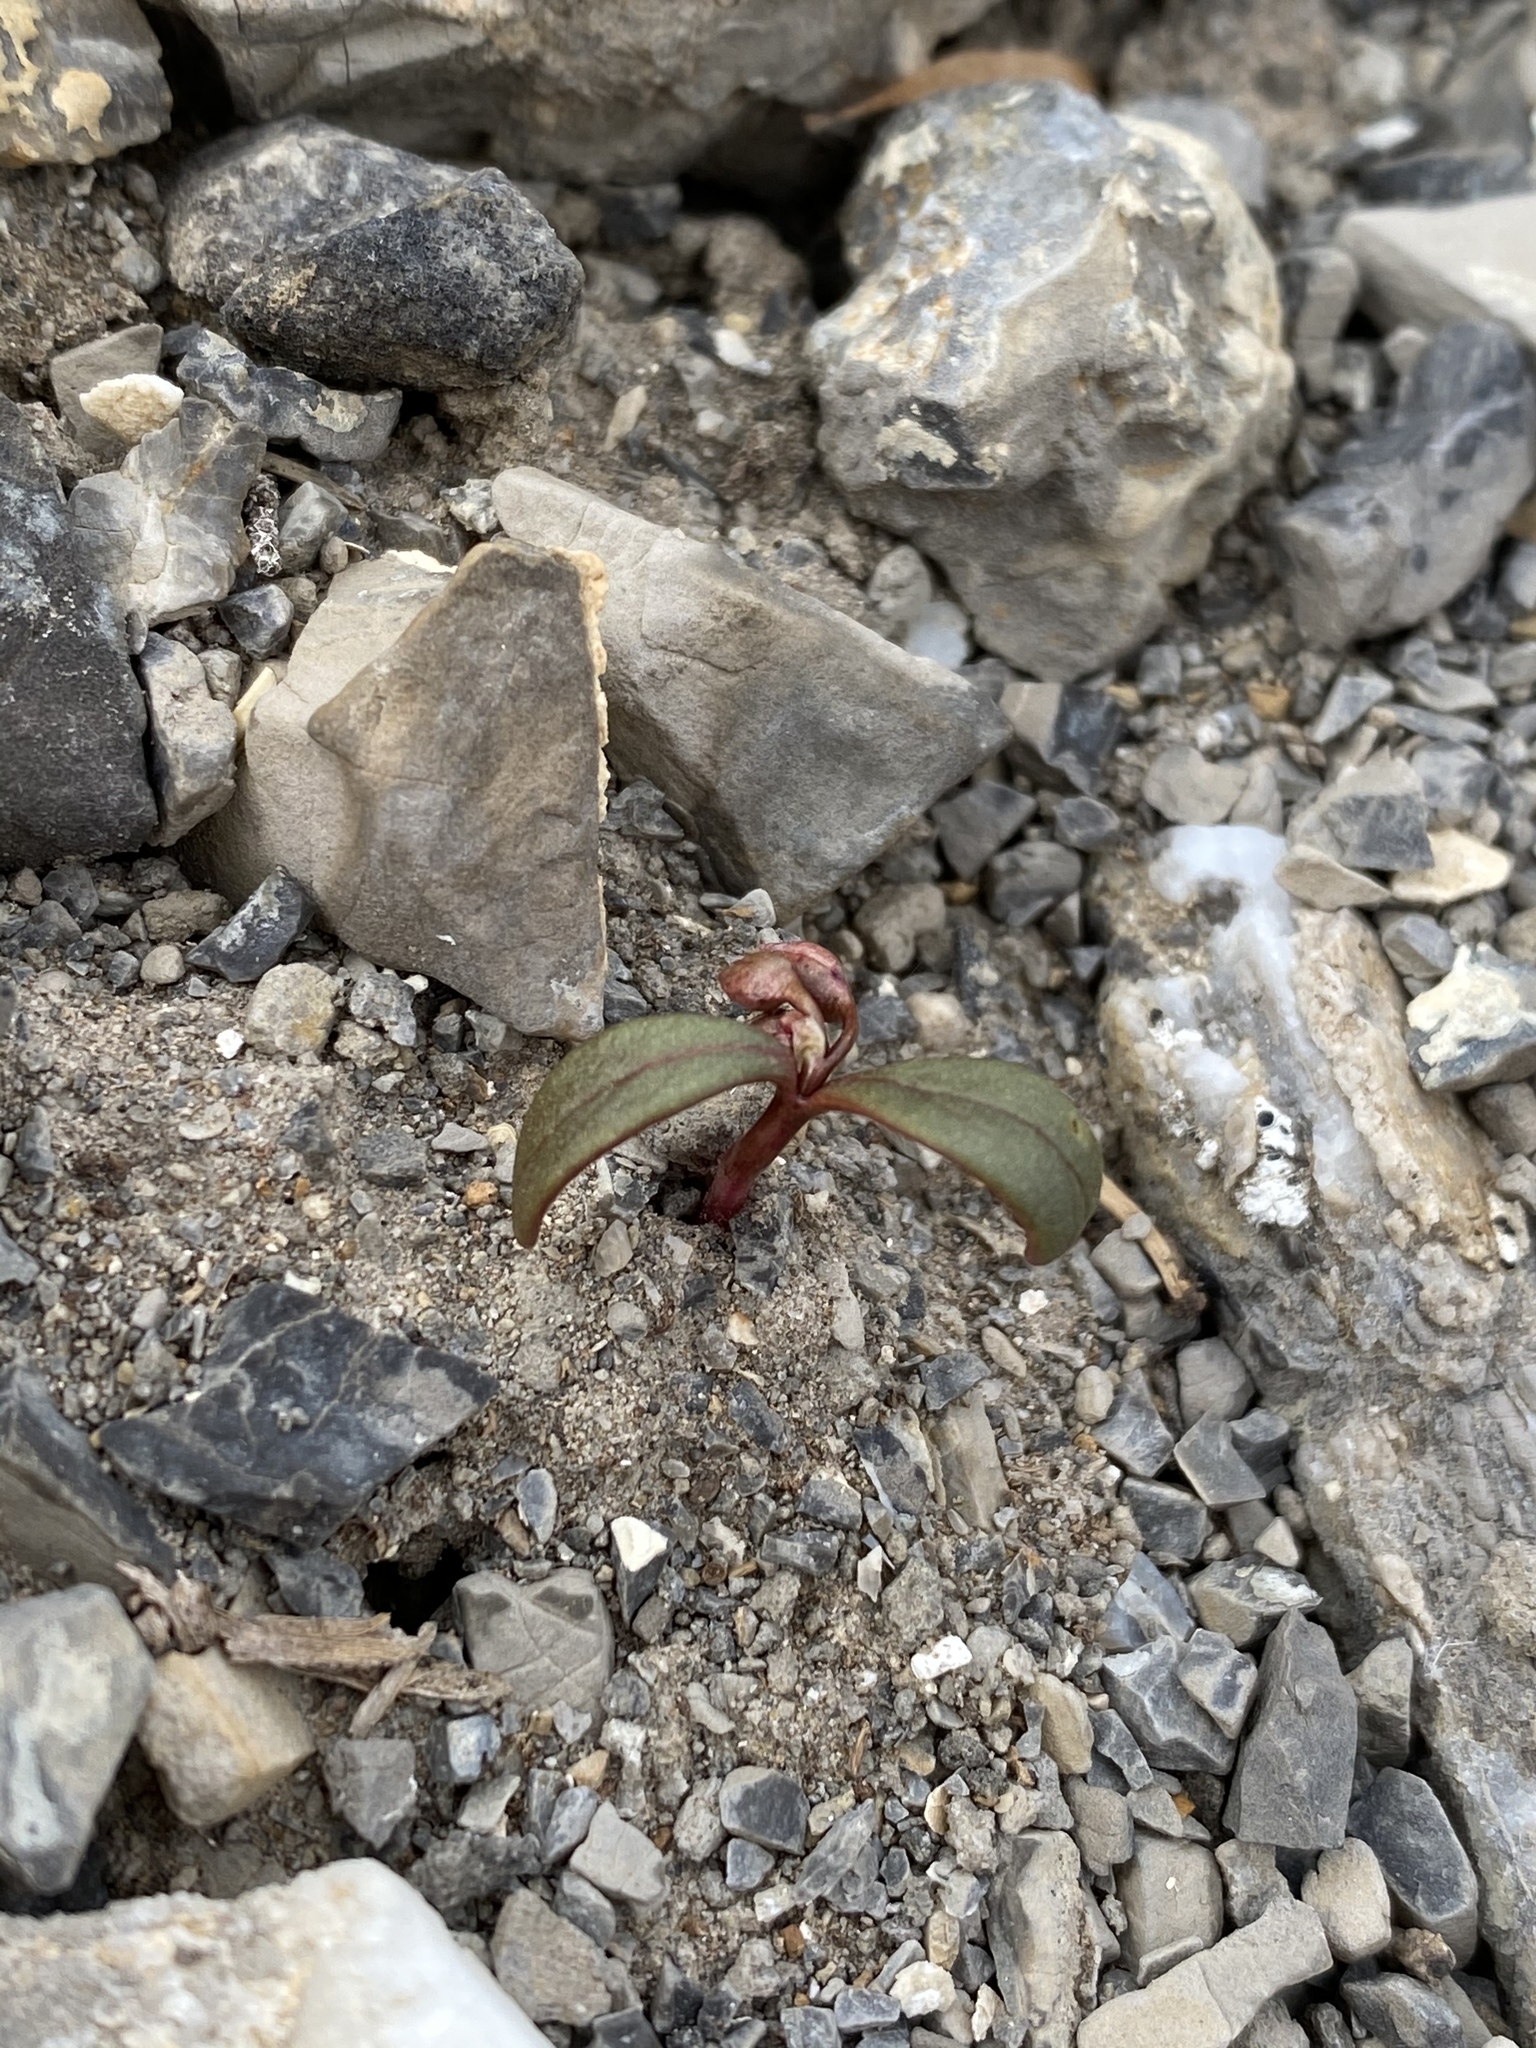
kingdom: Plantae
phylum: Tracheophyta
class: Magnoliopsida
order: Caryophyllales
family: Montiaceae
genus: Claytonia
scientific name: Claytonia panamintensis
